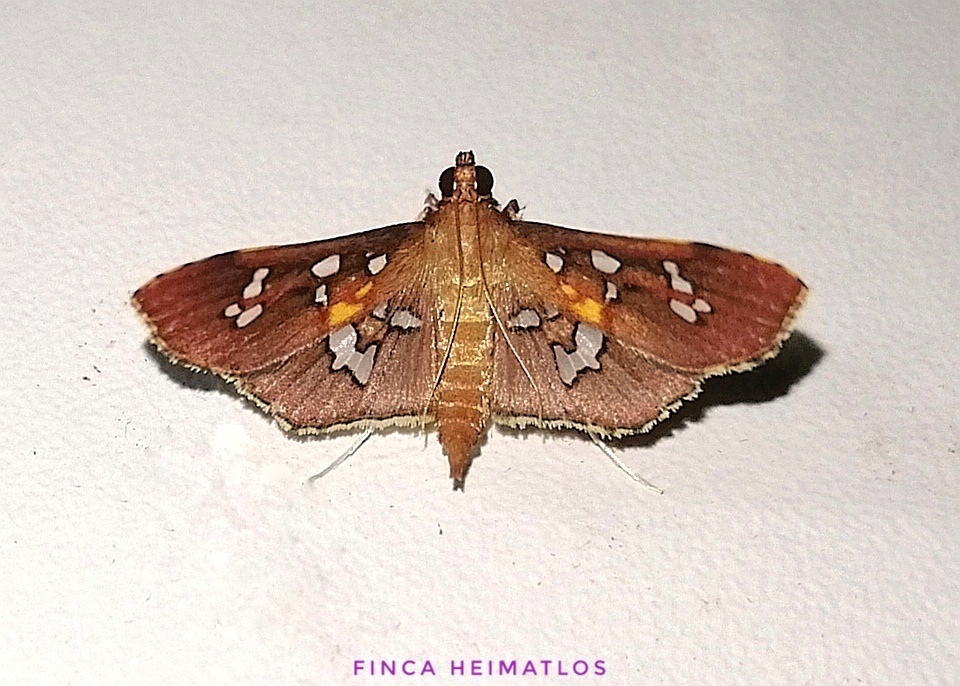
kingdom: Animalia
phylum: Arthropoda
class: Insecta
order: Lepidoptera
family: Crambidae
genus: Phostria
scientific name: Phostria varialis
